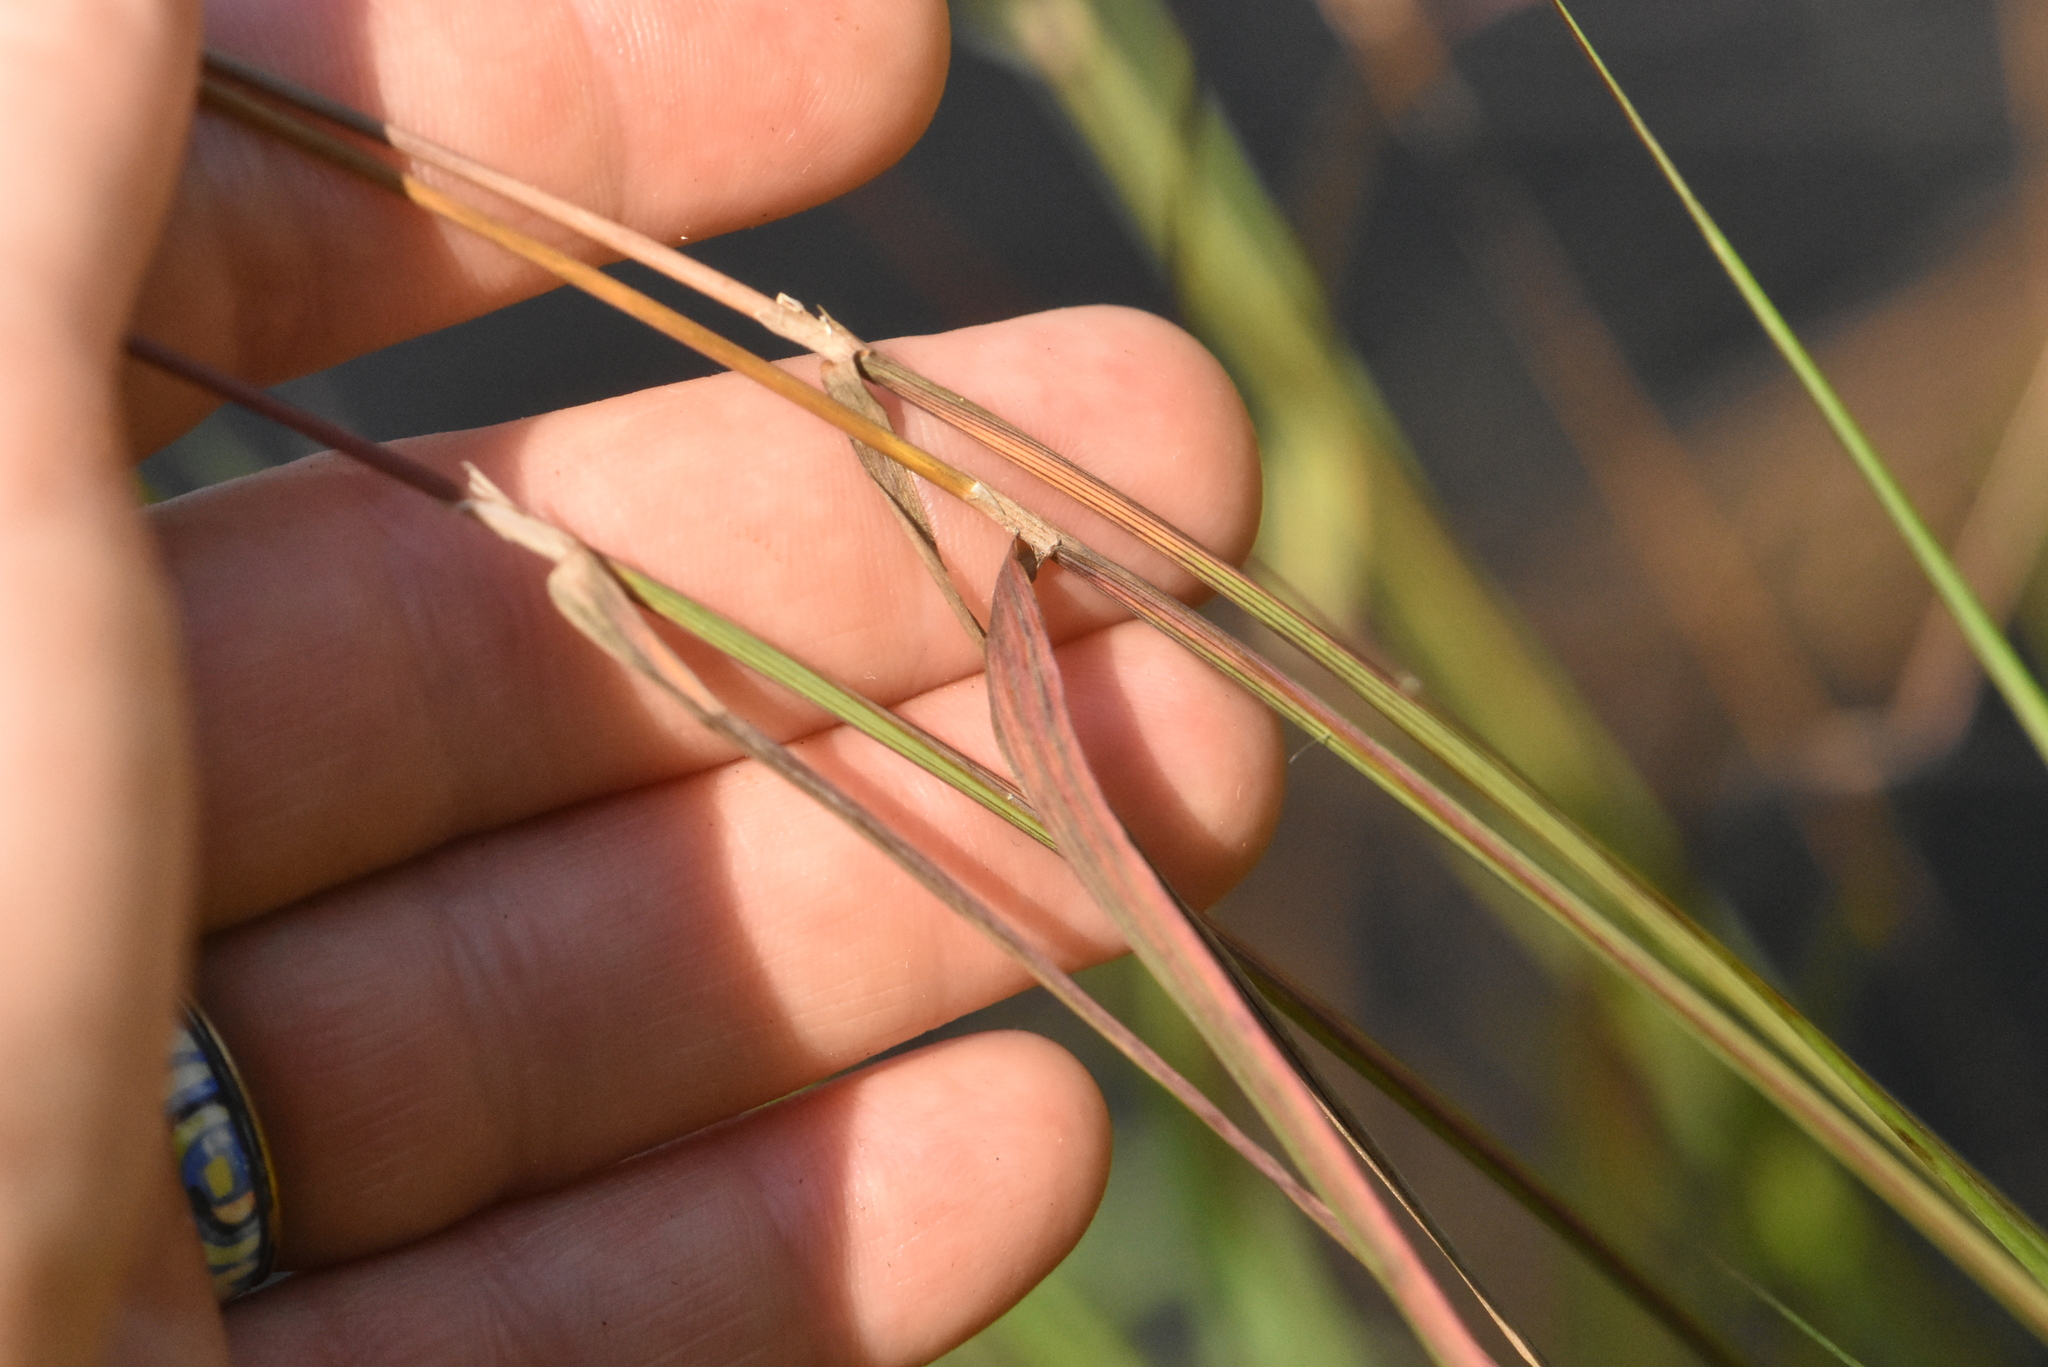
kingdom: Plantae
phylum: Tracheophyta
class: Liliopsida
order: Poales
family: Poaceae
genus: Phragmites
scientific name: Phragmites australis
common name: Common reed
